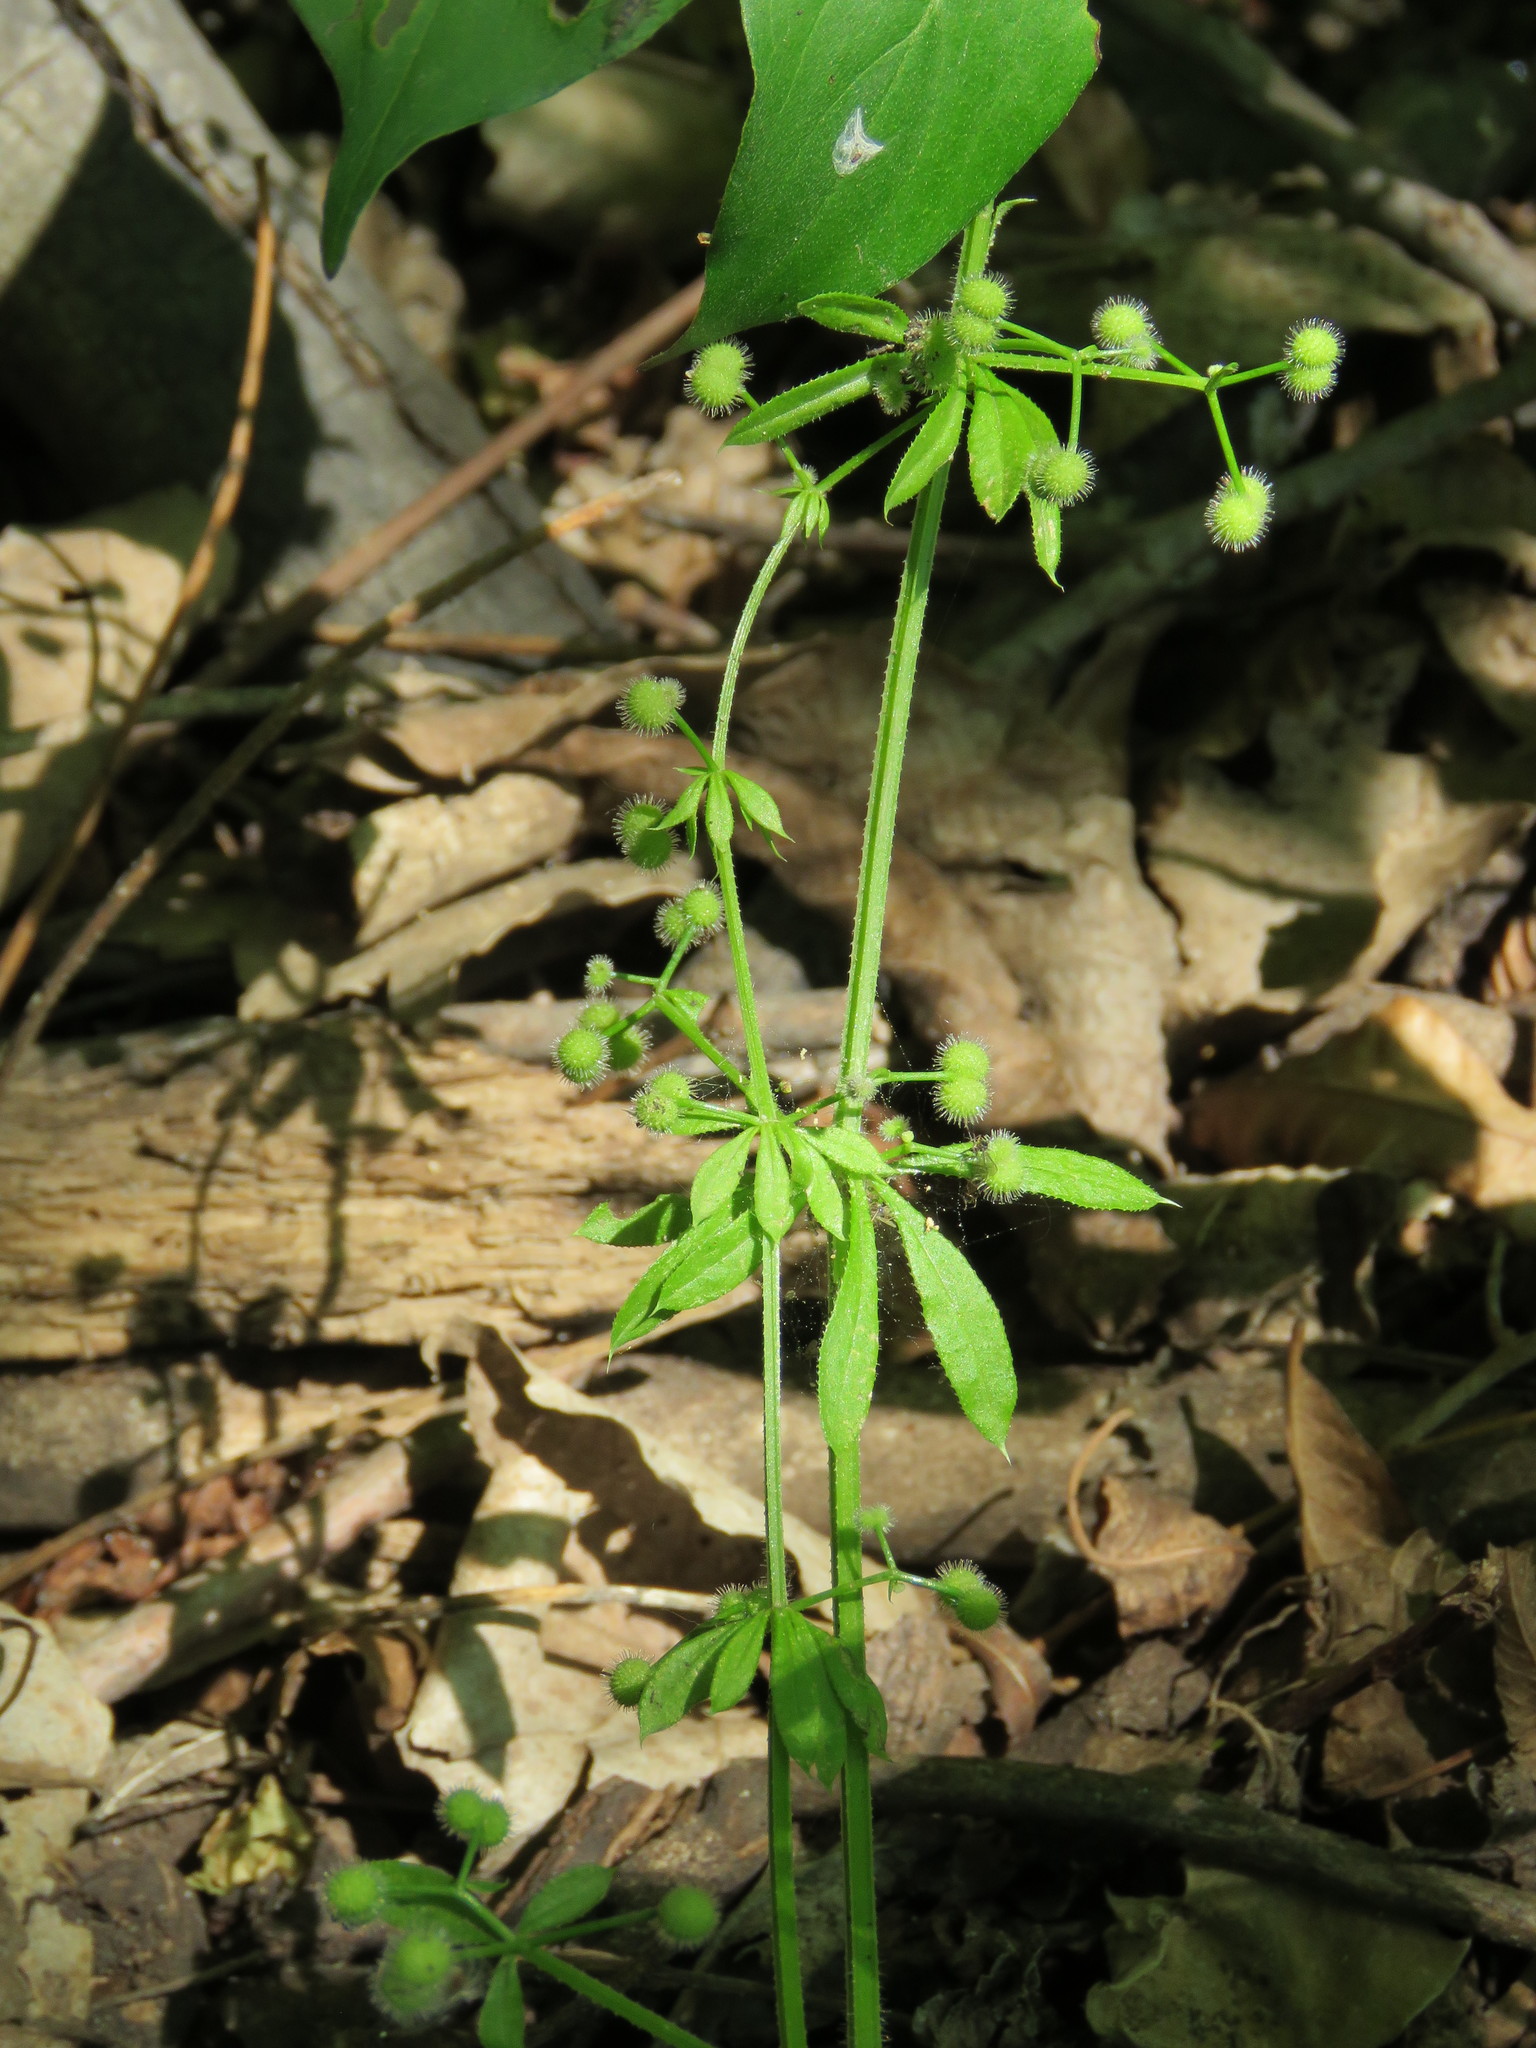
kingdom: Plantae
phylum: Tracheophyta
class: Magnoliopsida
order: Gentianales
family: Rubiaceae
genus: Galium
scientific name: Galium aparine
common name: Cleavers
